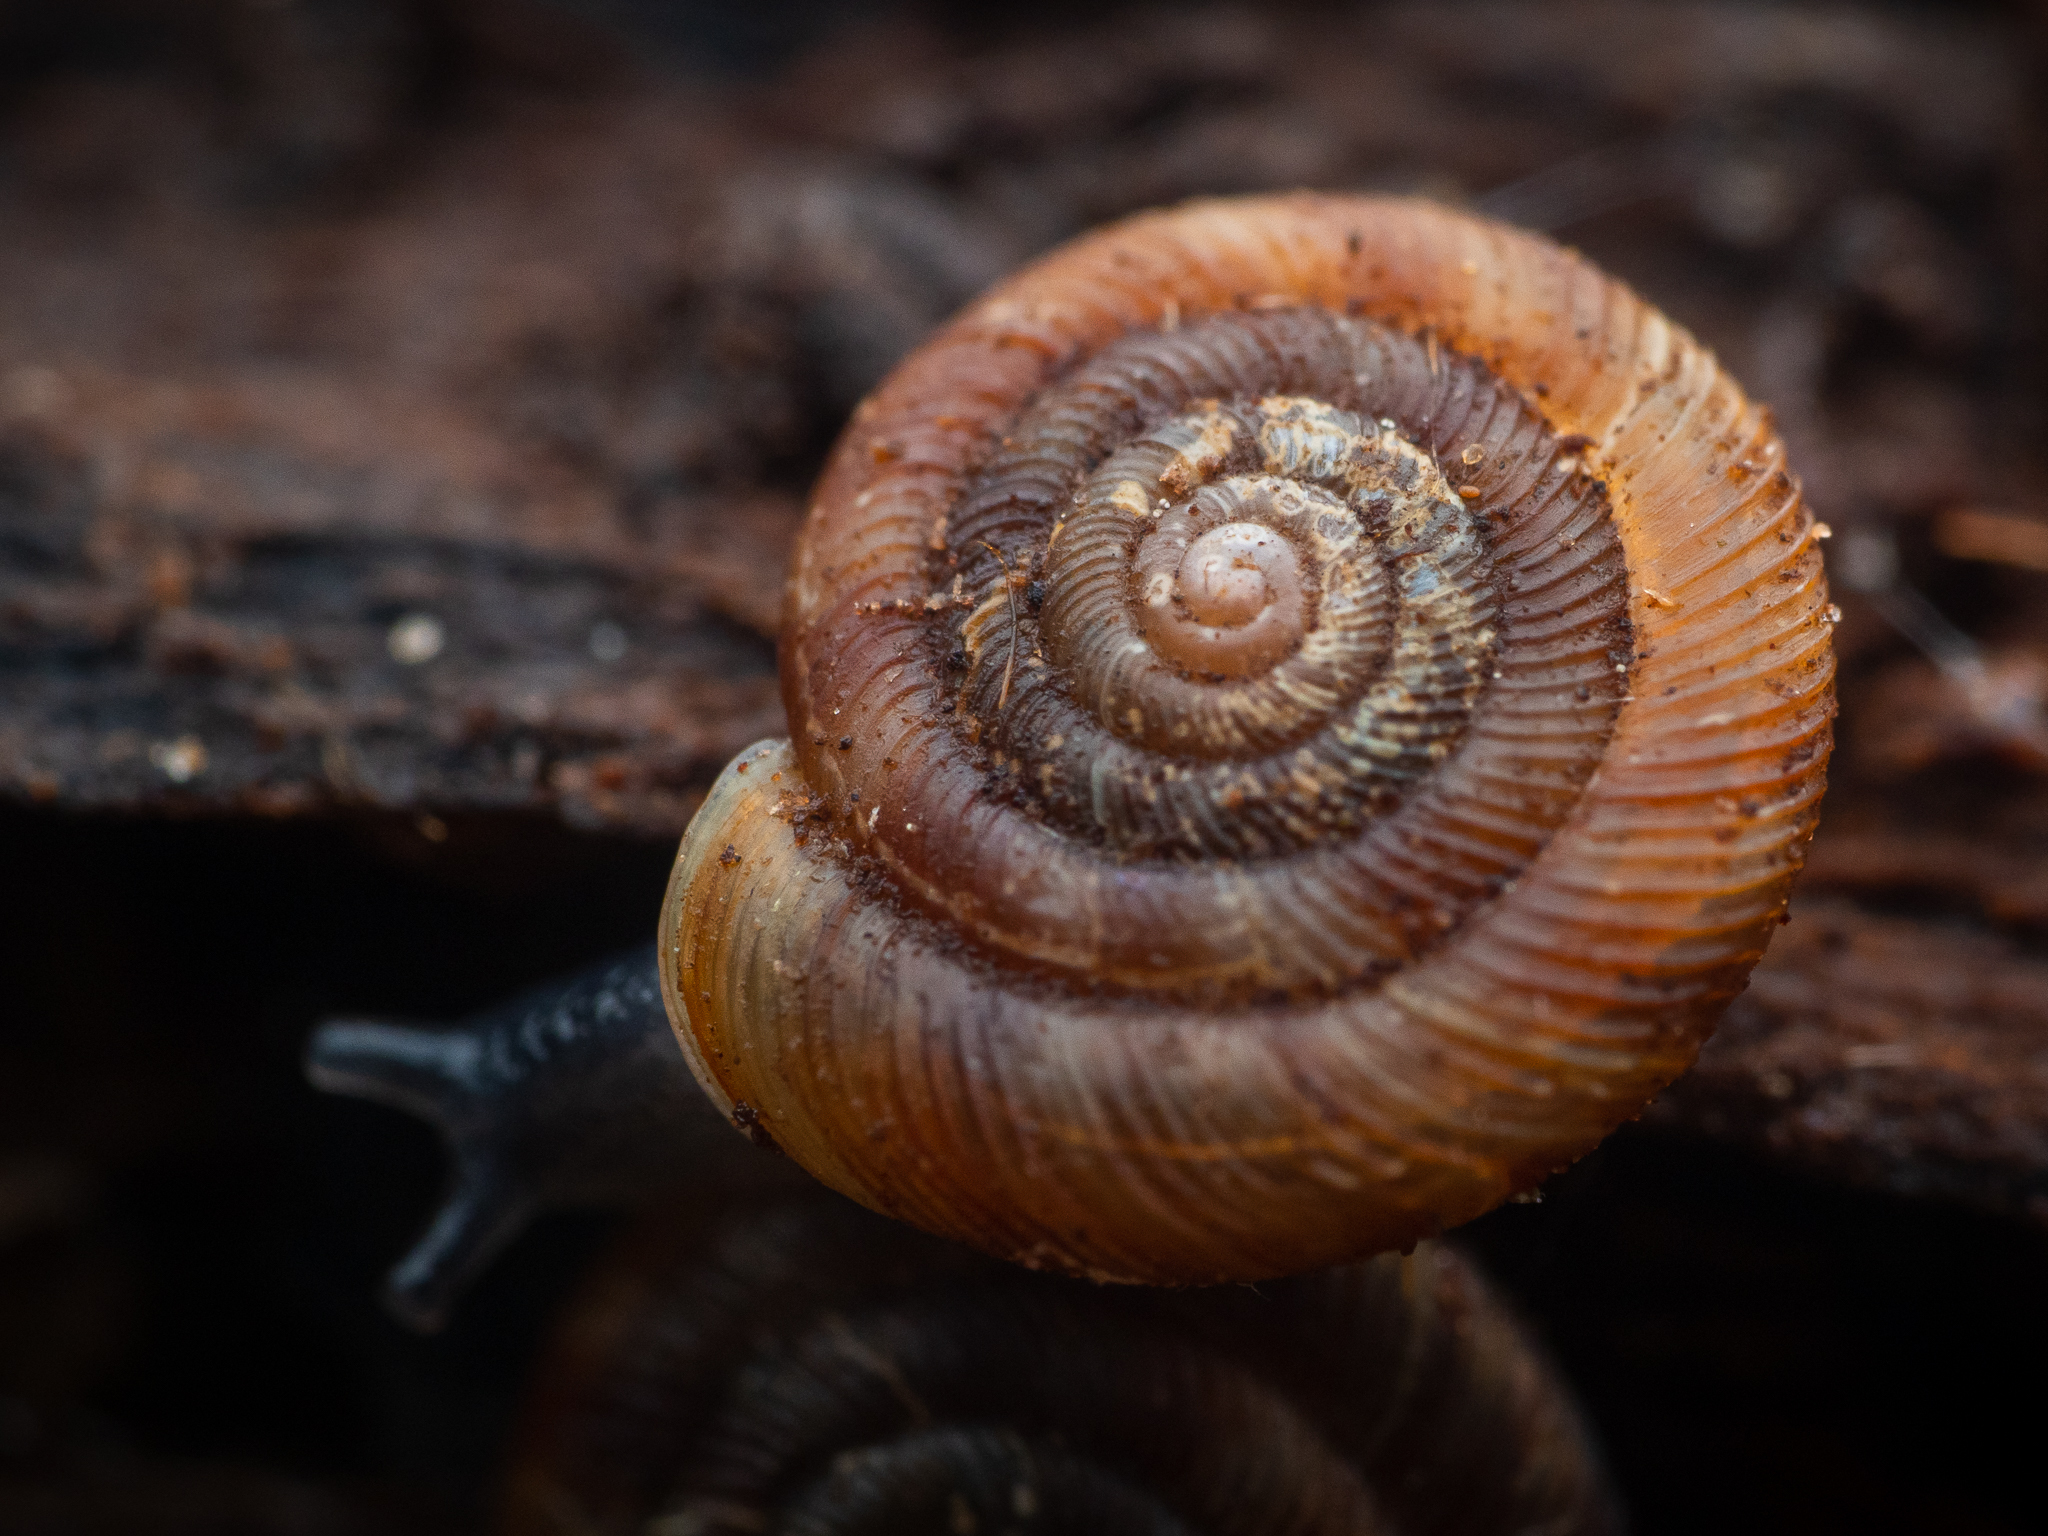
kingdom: Animalia
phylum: Mollusca
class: Gastropoda
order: Stylommatophora
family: Discidae
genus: Discus
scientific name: Discus rotundatus
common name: Rounded snail
